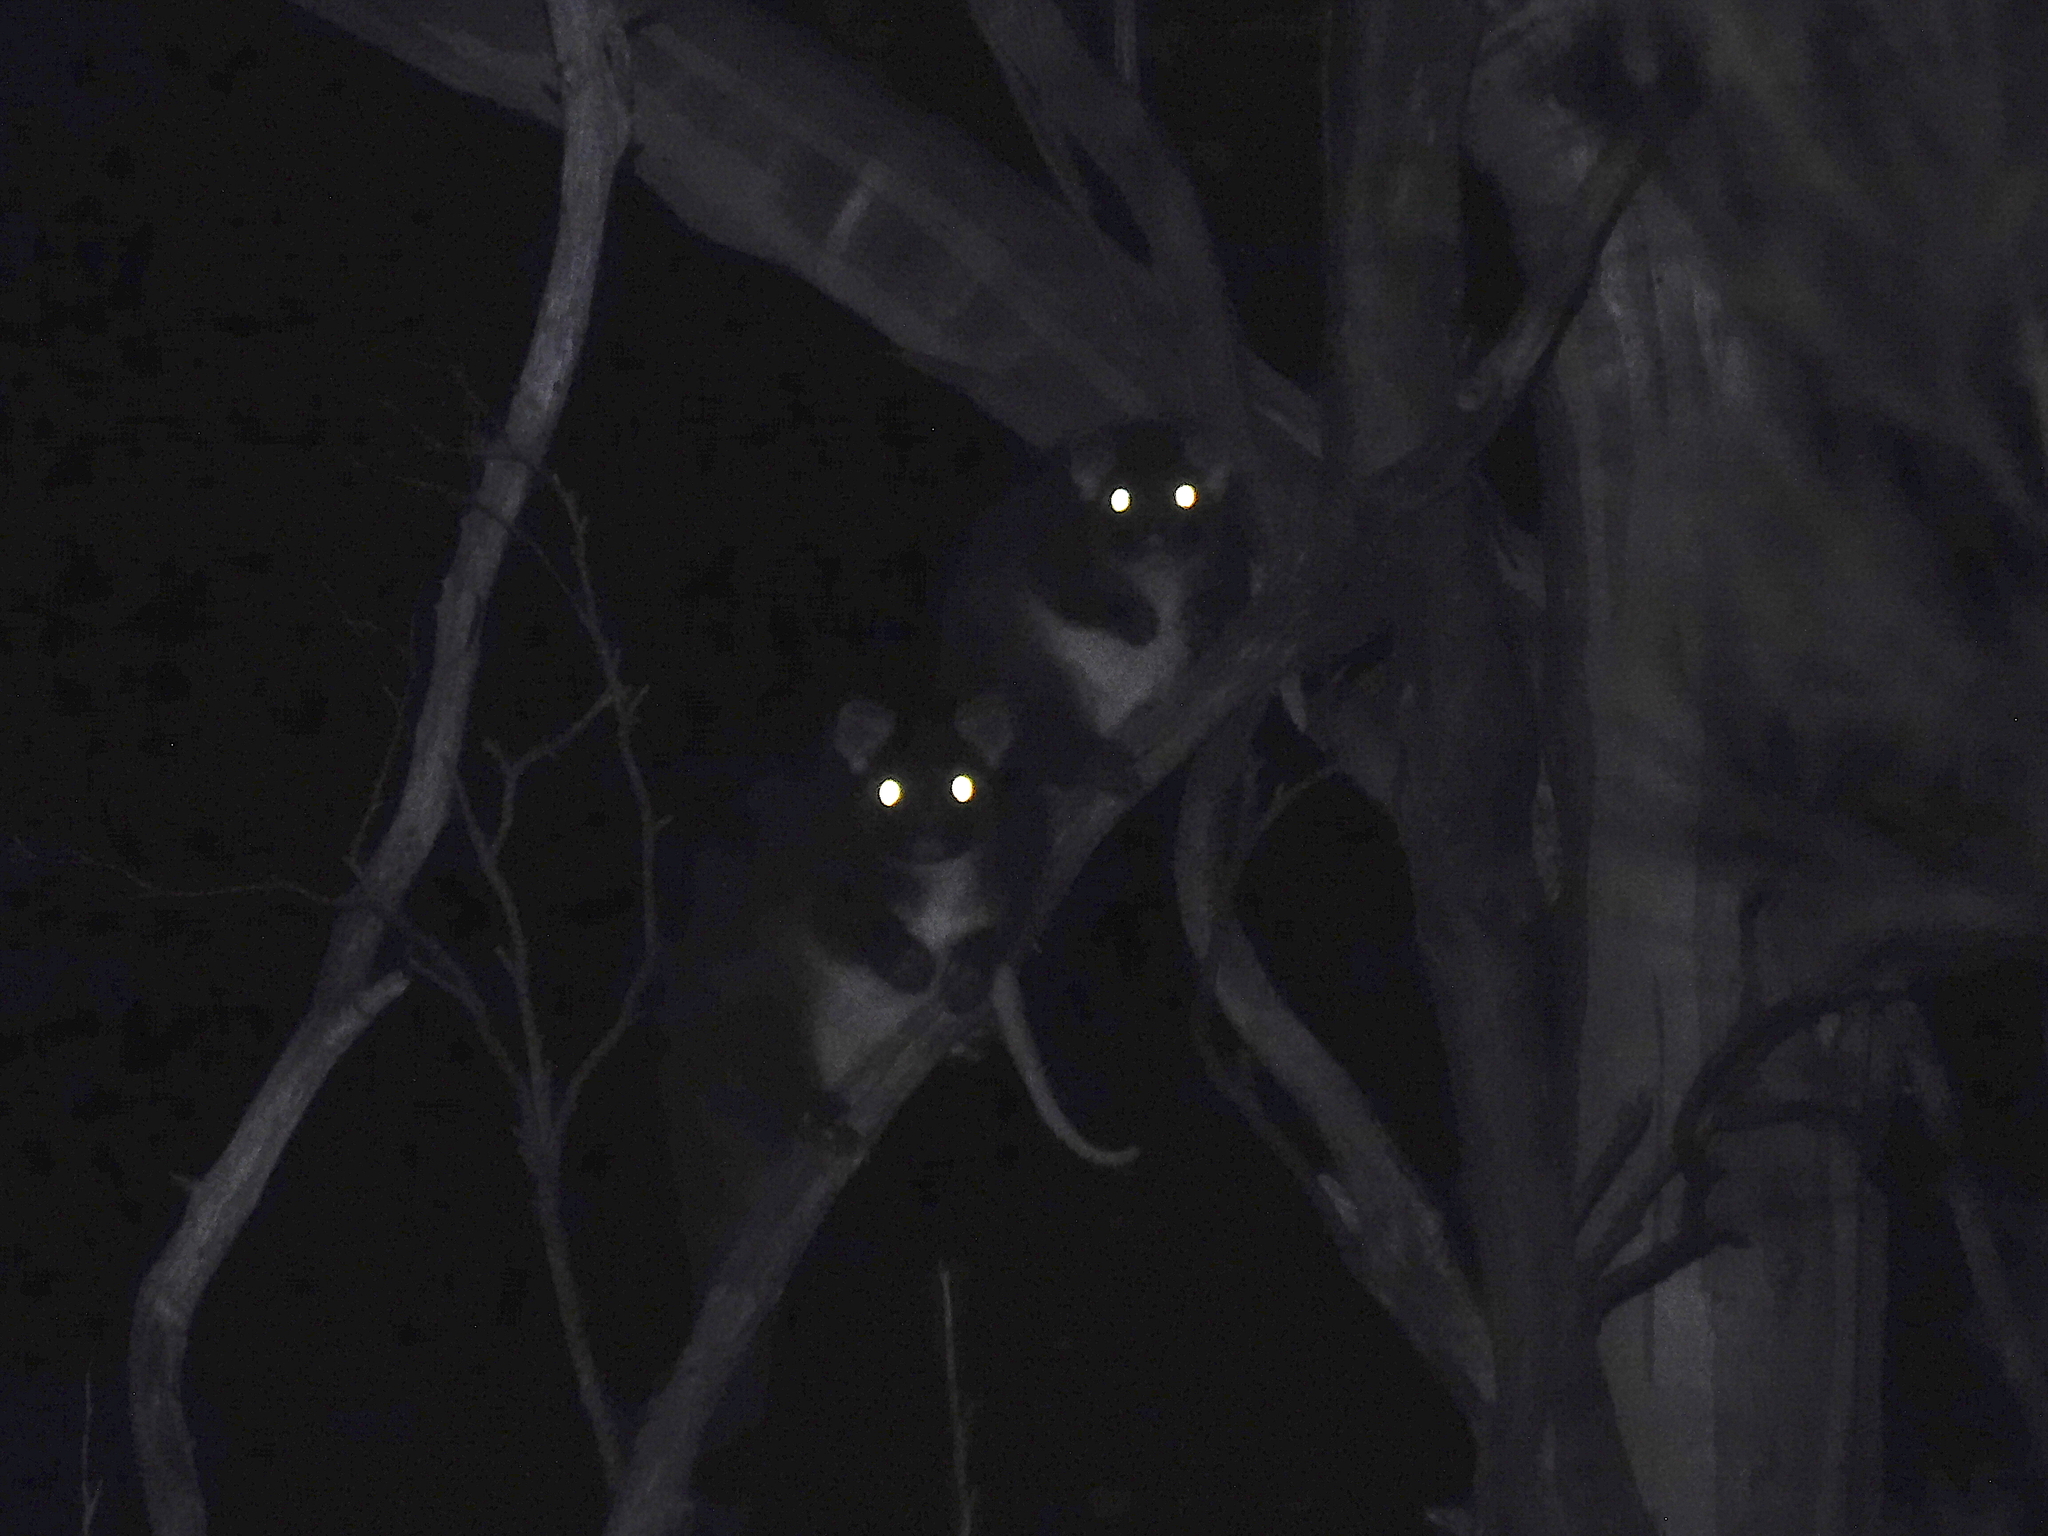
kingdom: Animalia
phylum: Chordata
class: Mammalia
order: Diprotodontia
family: Pseudocheiridae
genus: Pseudocheirus
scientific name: Pseudocheirus peregrinus
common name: Common ringtail possum
